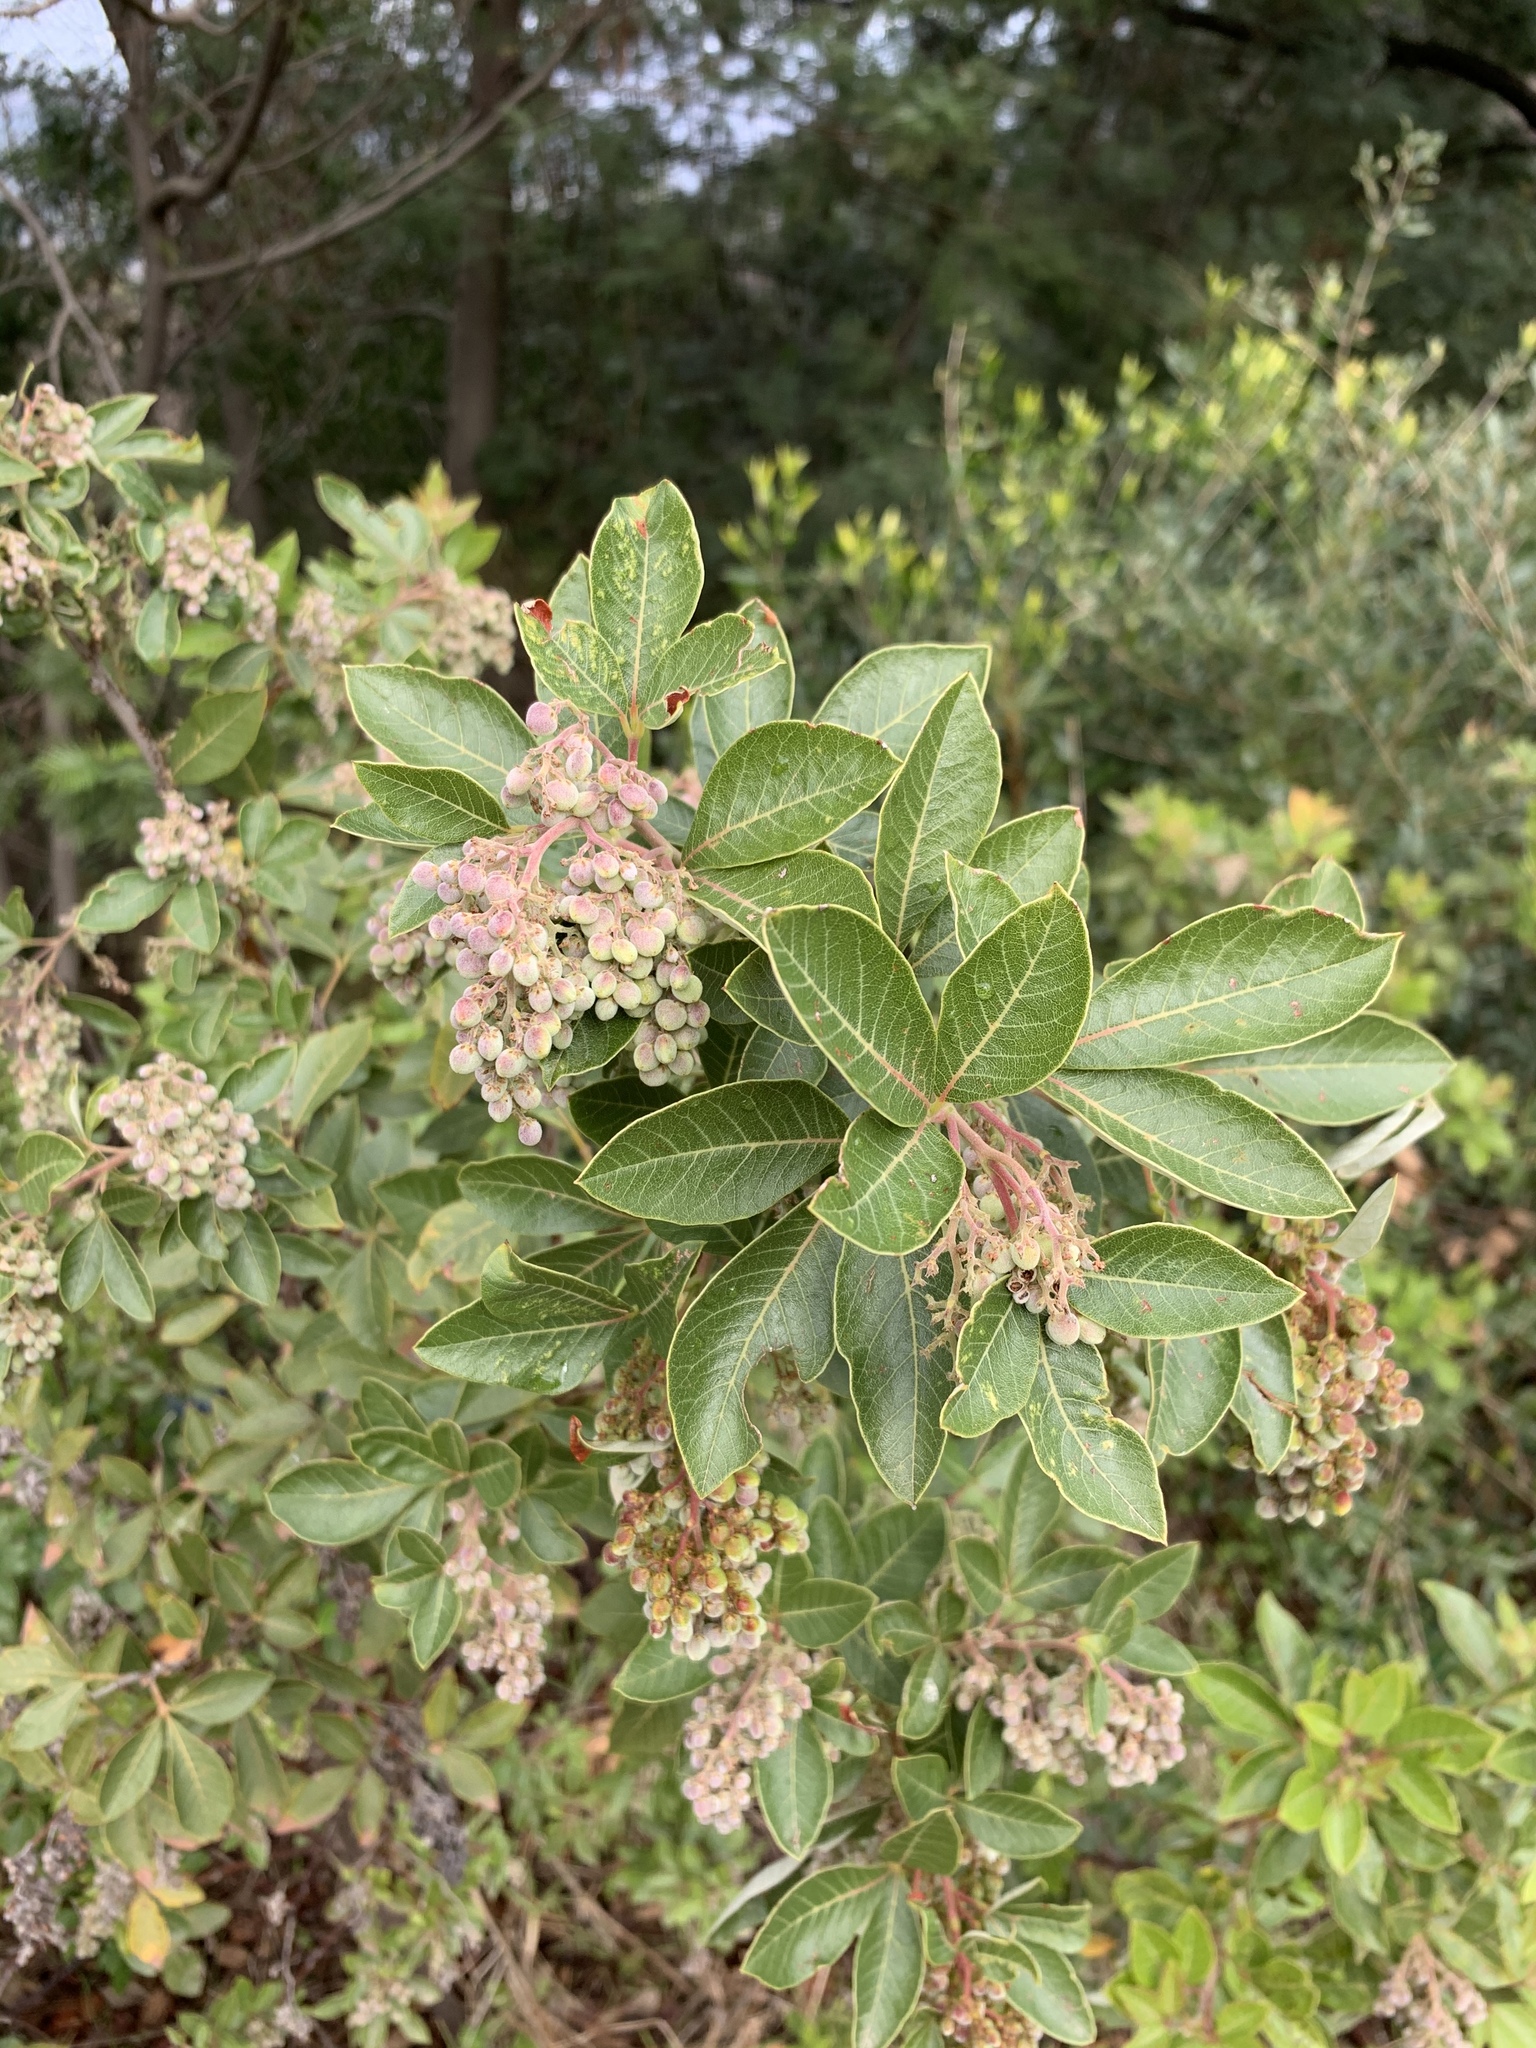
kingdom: Plantae
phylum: Tracheophyta
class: Magnoliopsida
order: Sapindales
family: Anacardiaceae
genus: Searsia
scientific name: Searsia tomentosa
